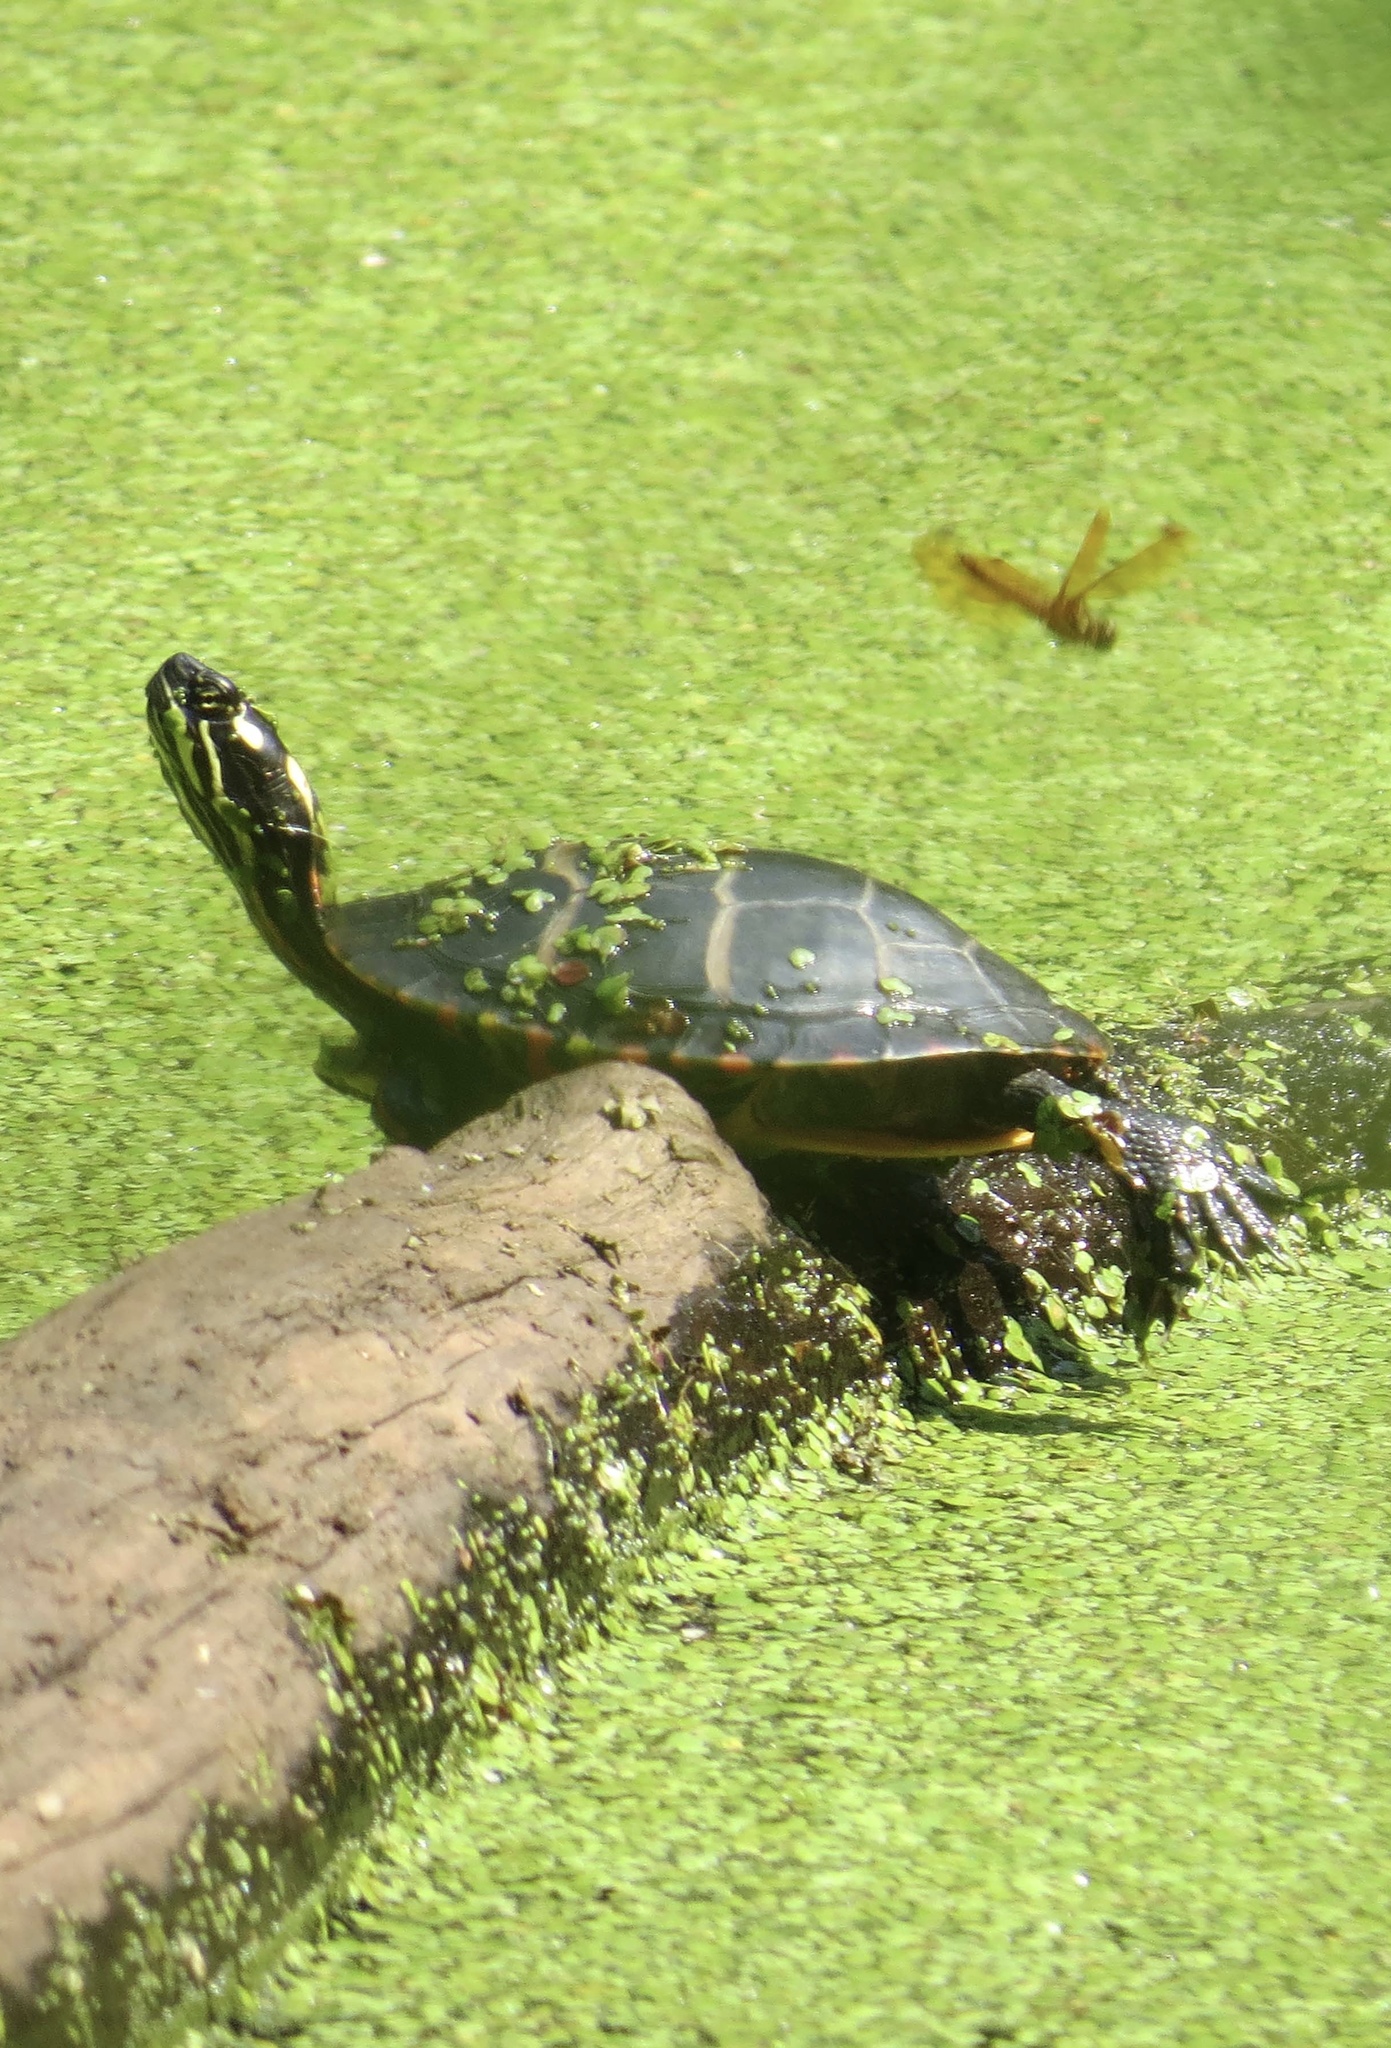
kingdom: Animalia
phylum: Chordata
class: Testudines
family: Emydidae
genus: Chrysemys
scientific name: Chrysemys picta
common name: Painted turtle
